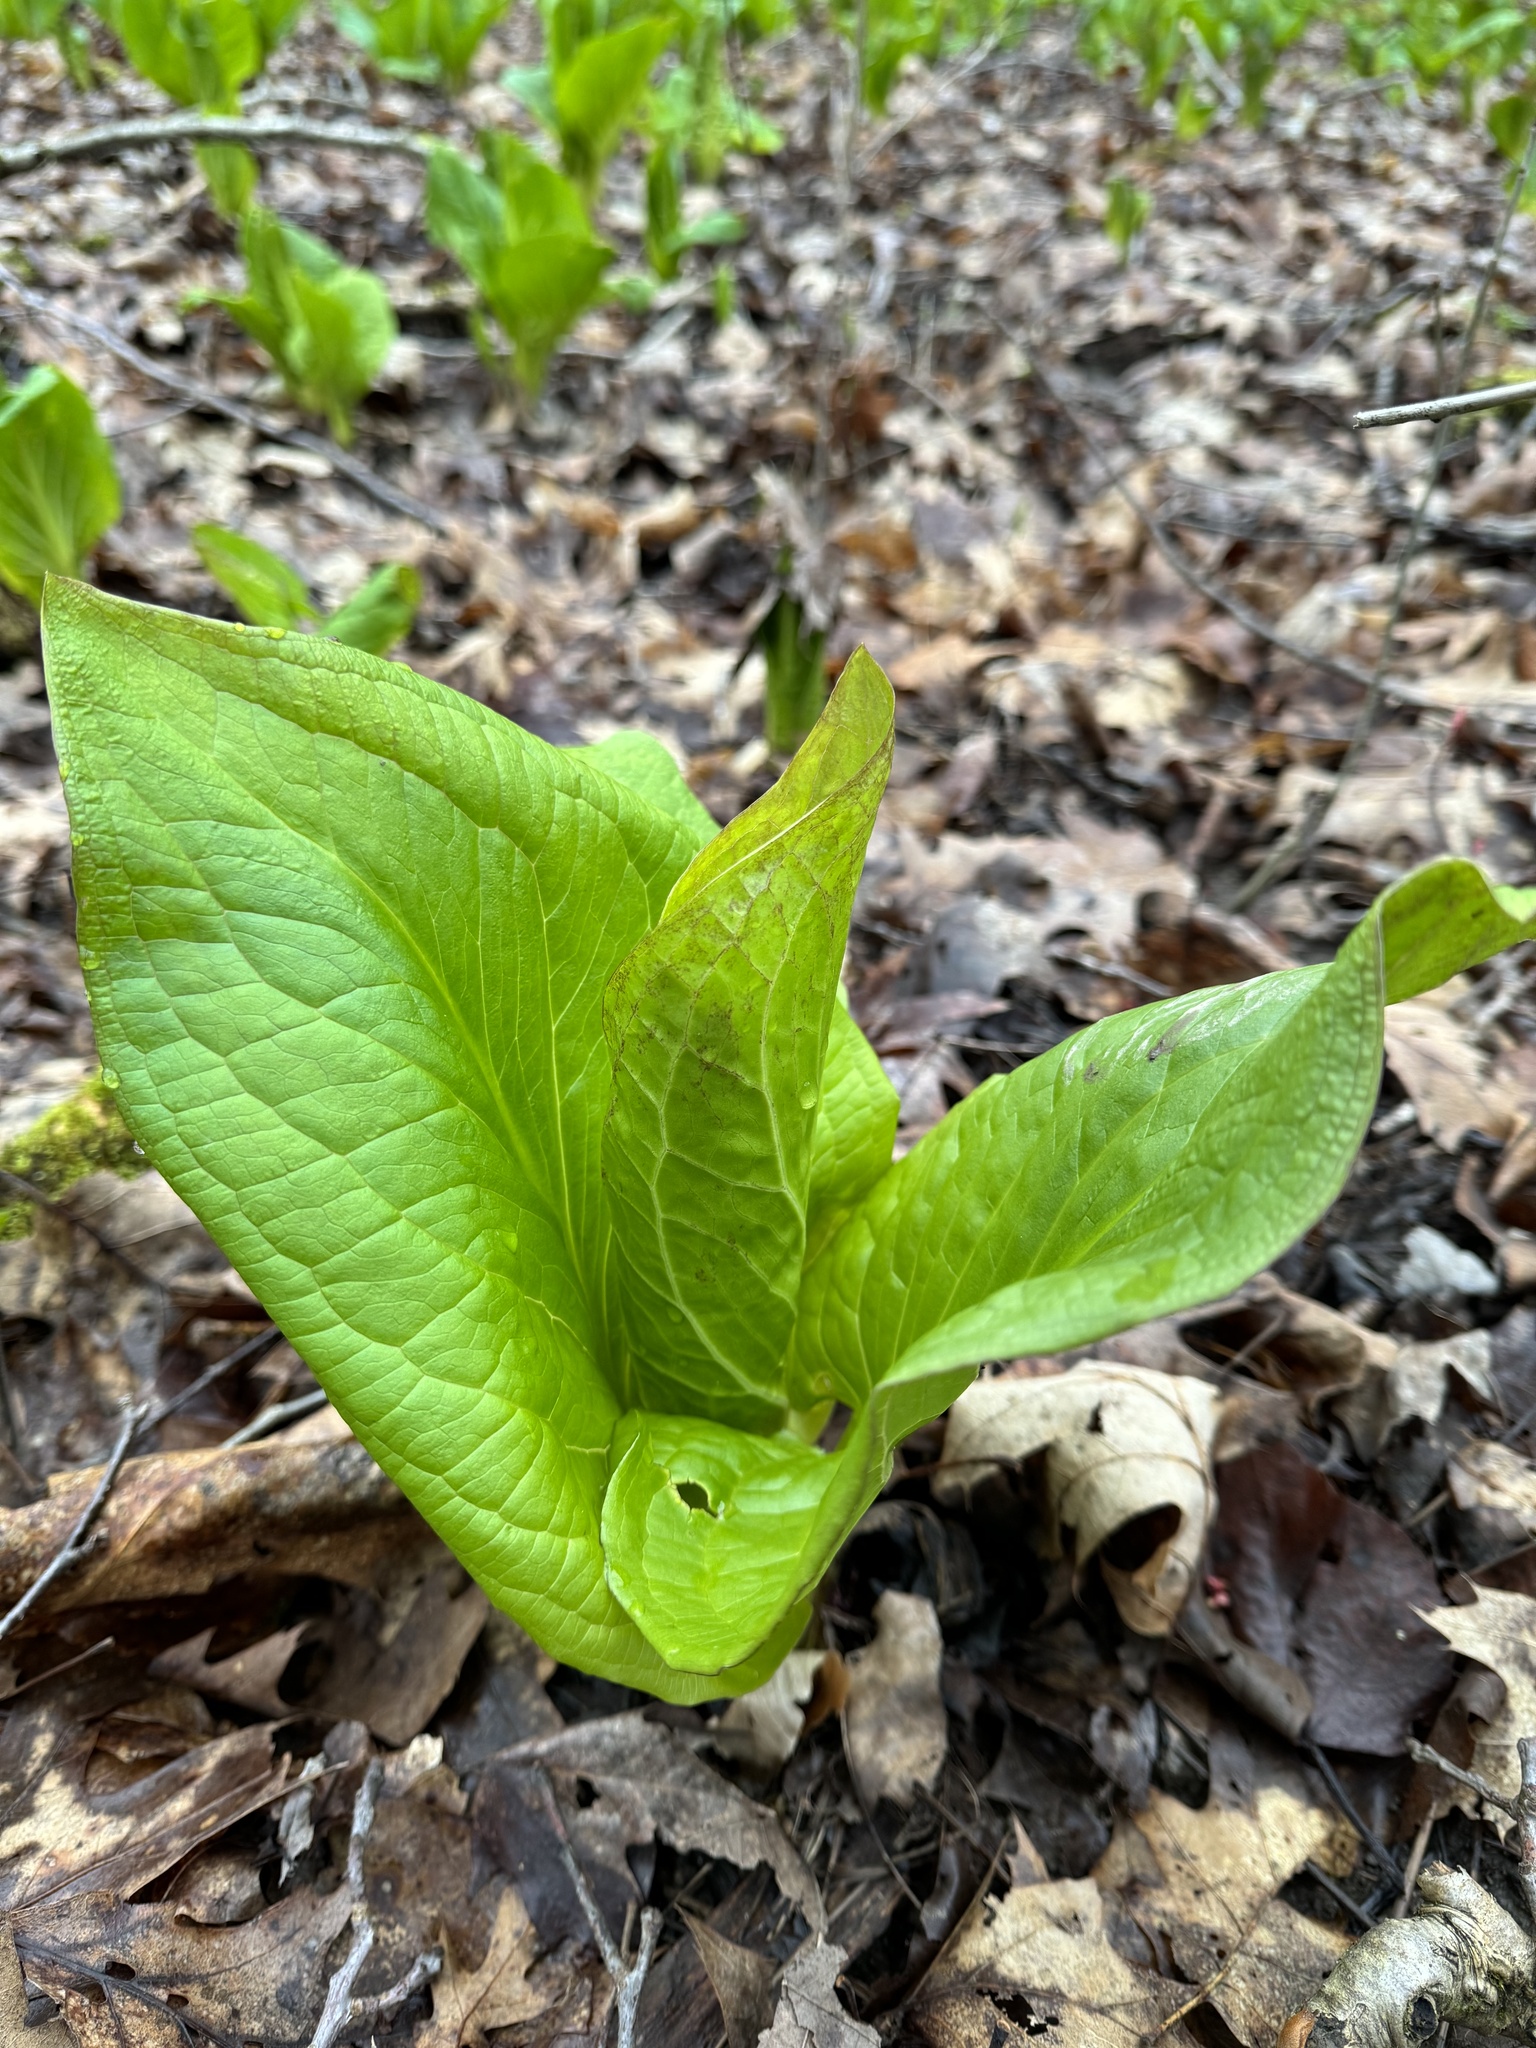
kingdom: Plantae
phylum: Tracheophyta
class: Liliopsida
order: Alismatales
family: Araceae
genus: Symplocarpus
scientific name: Symplocarpus foetidus
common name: Eastern skunk cabbage
